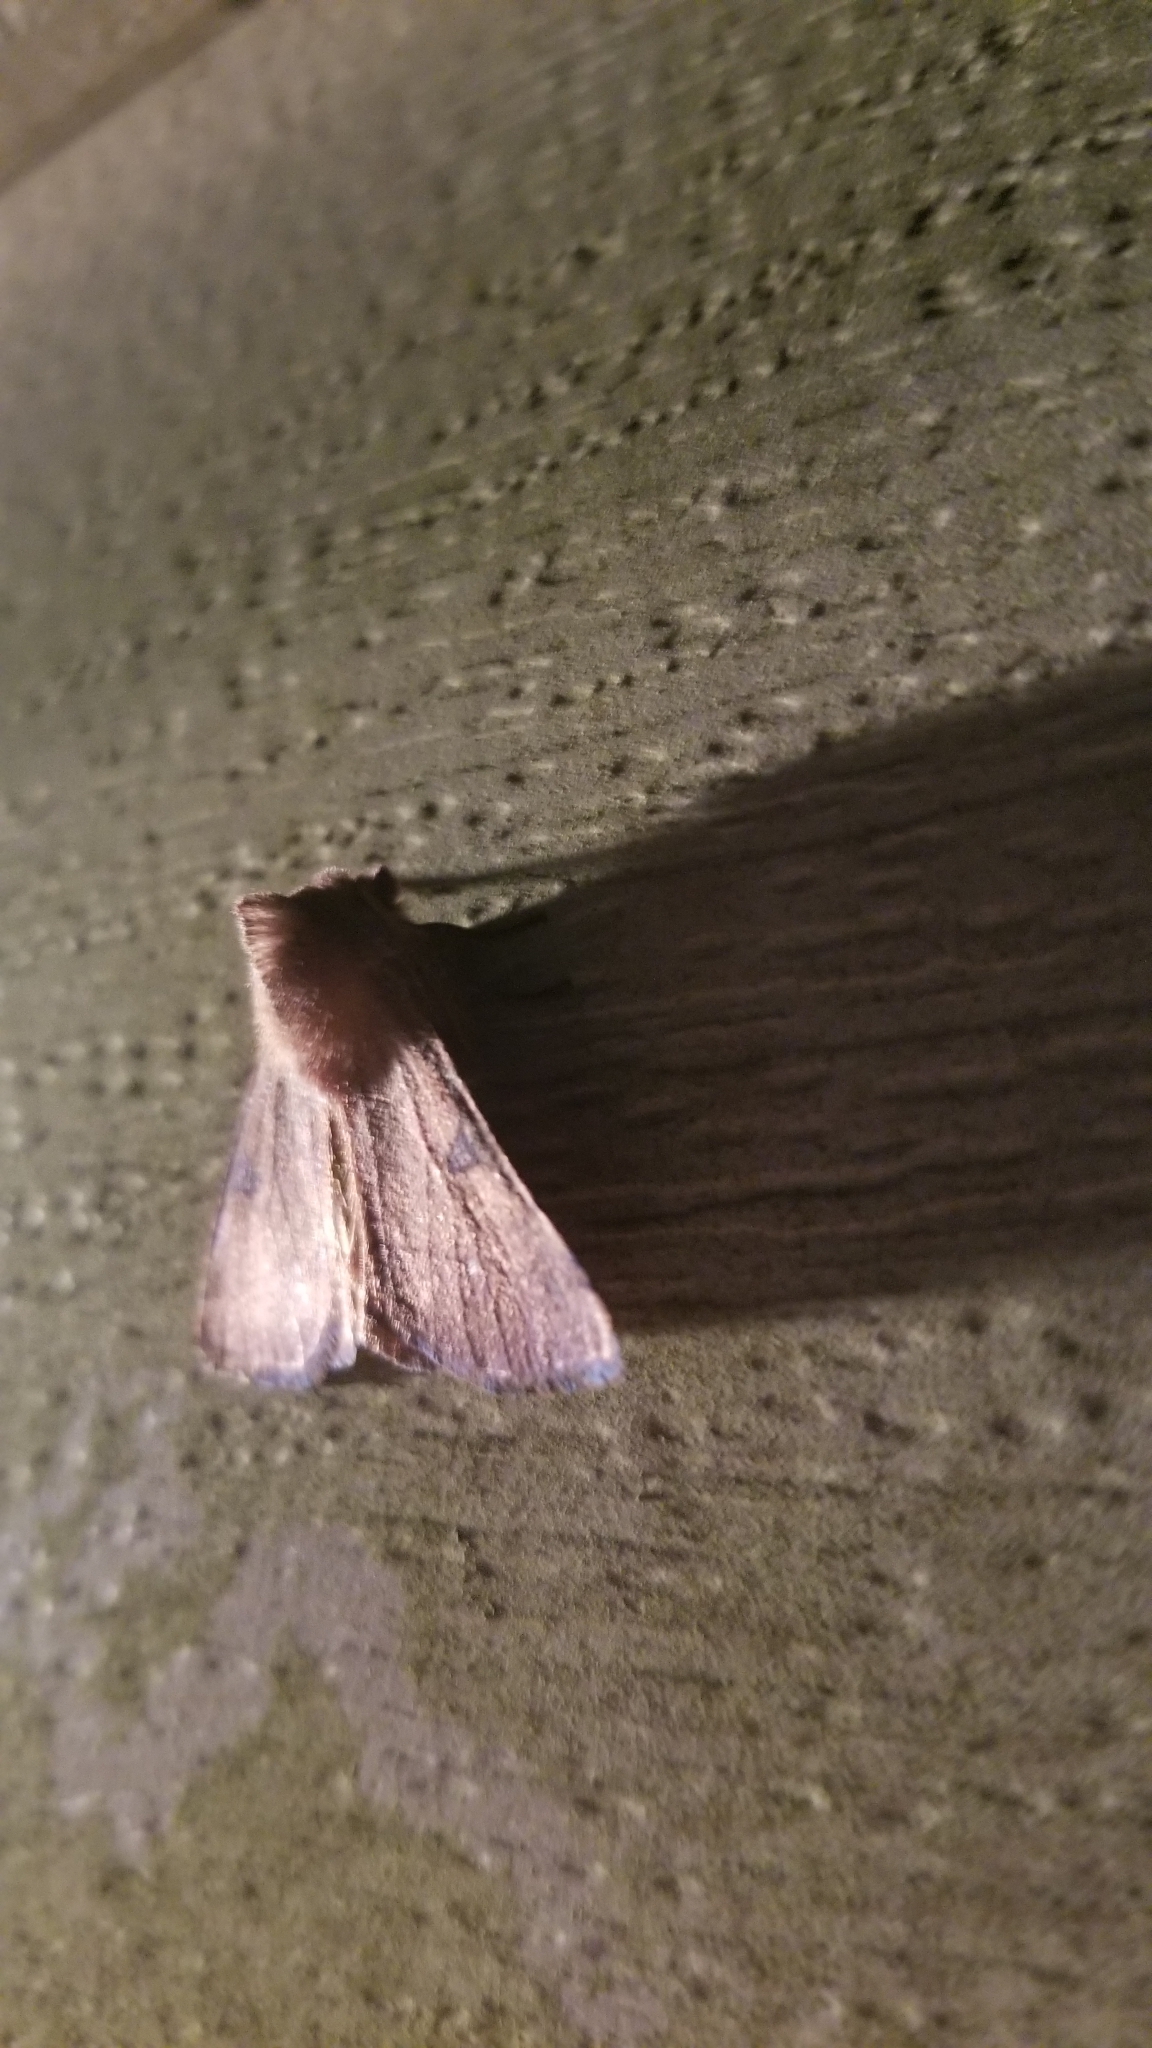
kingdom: Animalia
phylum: Arthropoda
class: Insecta
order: Lepidoptera
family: Noctuidae
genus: Choephora
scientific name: Choephora fungorum
